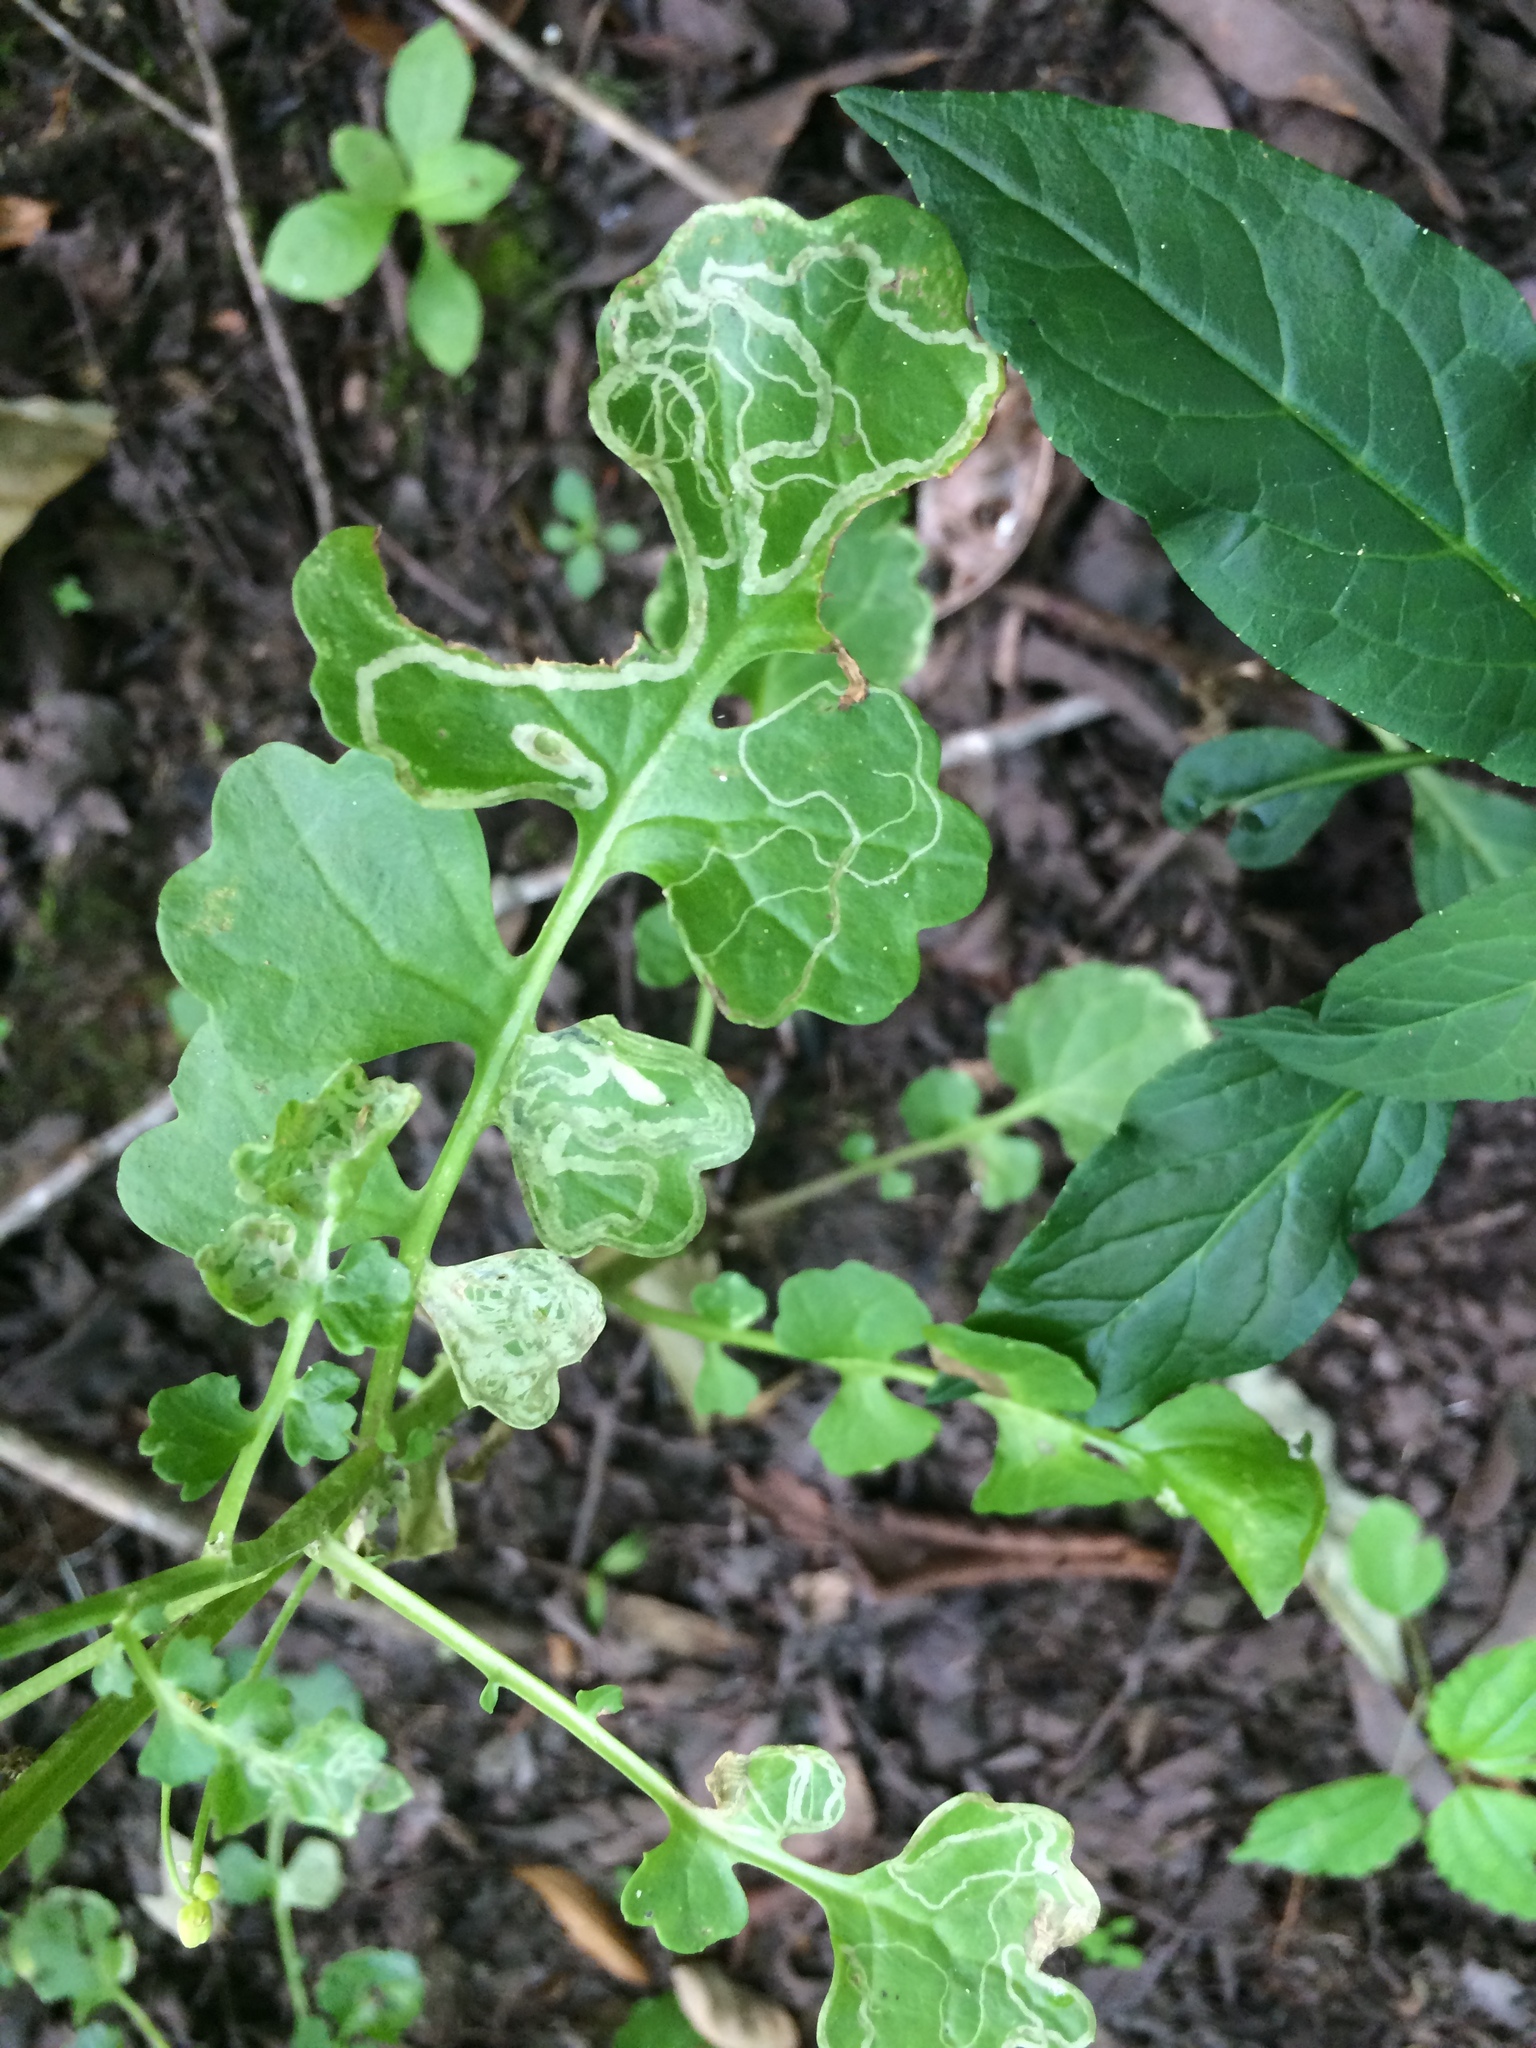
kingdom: Plantae
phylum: Tracheophyta
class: Magnoliopsida
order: Asterales
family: Asteraceae
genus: Packera
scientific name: Packera glabella
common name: Butterweed
